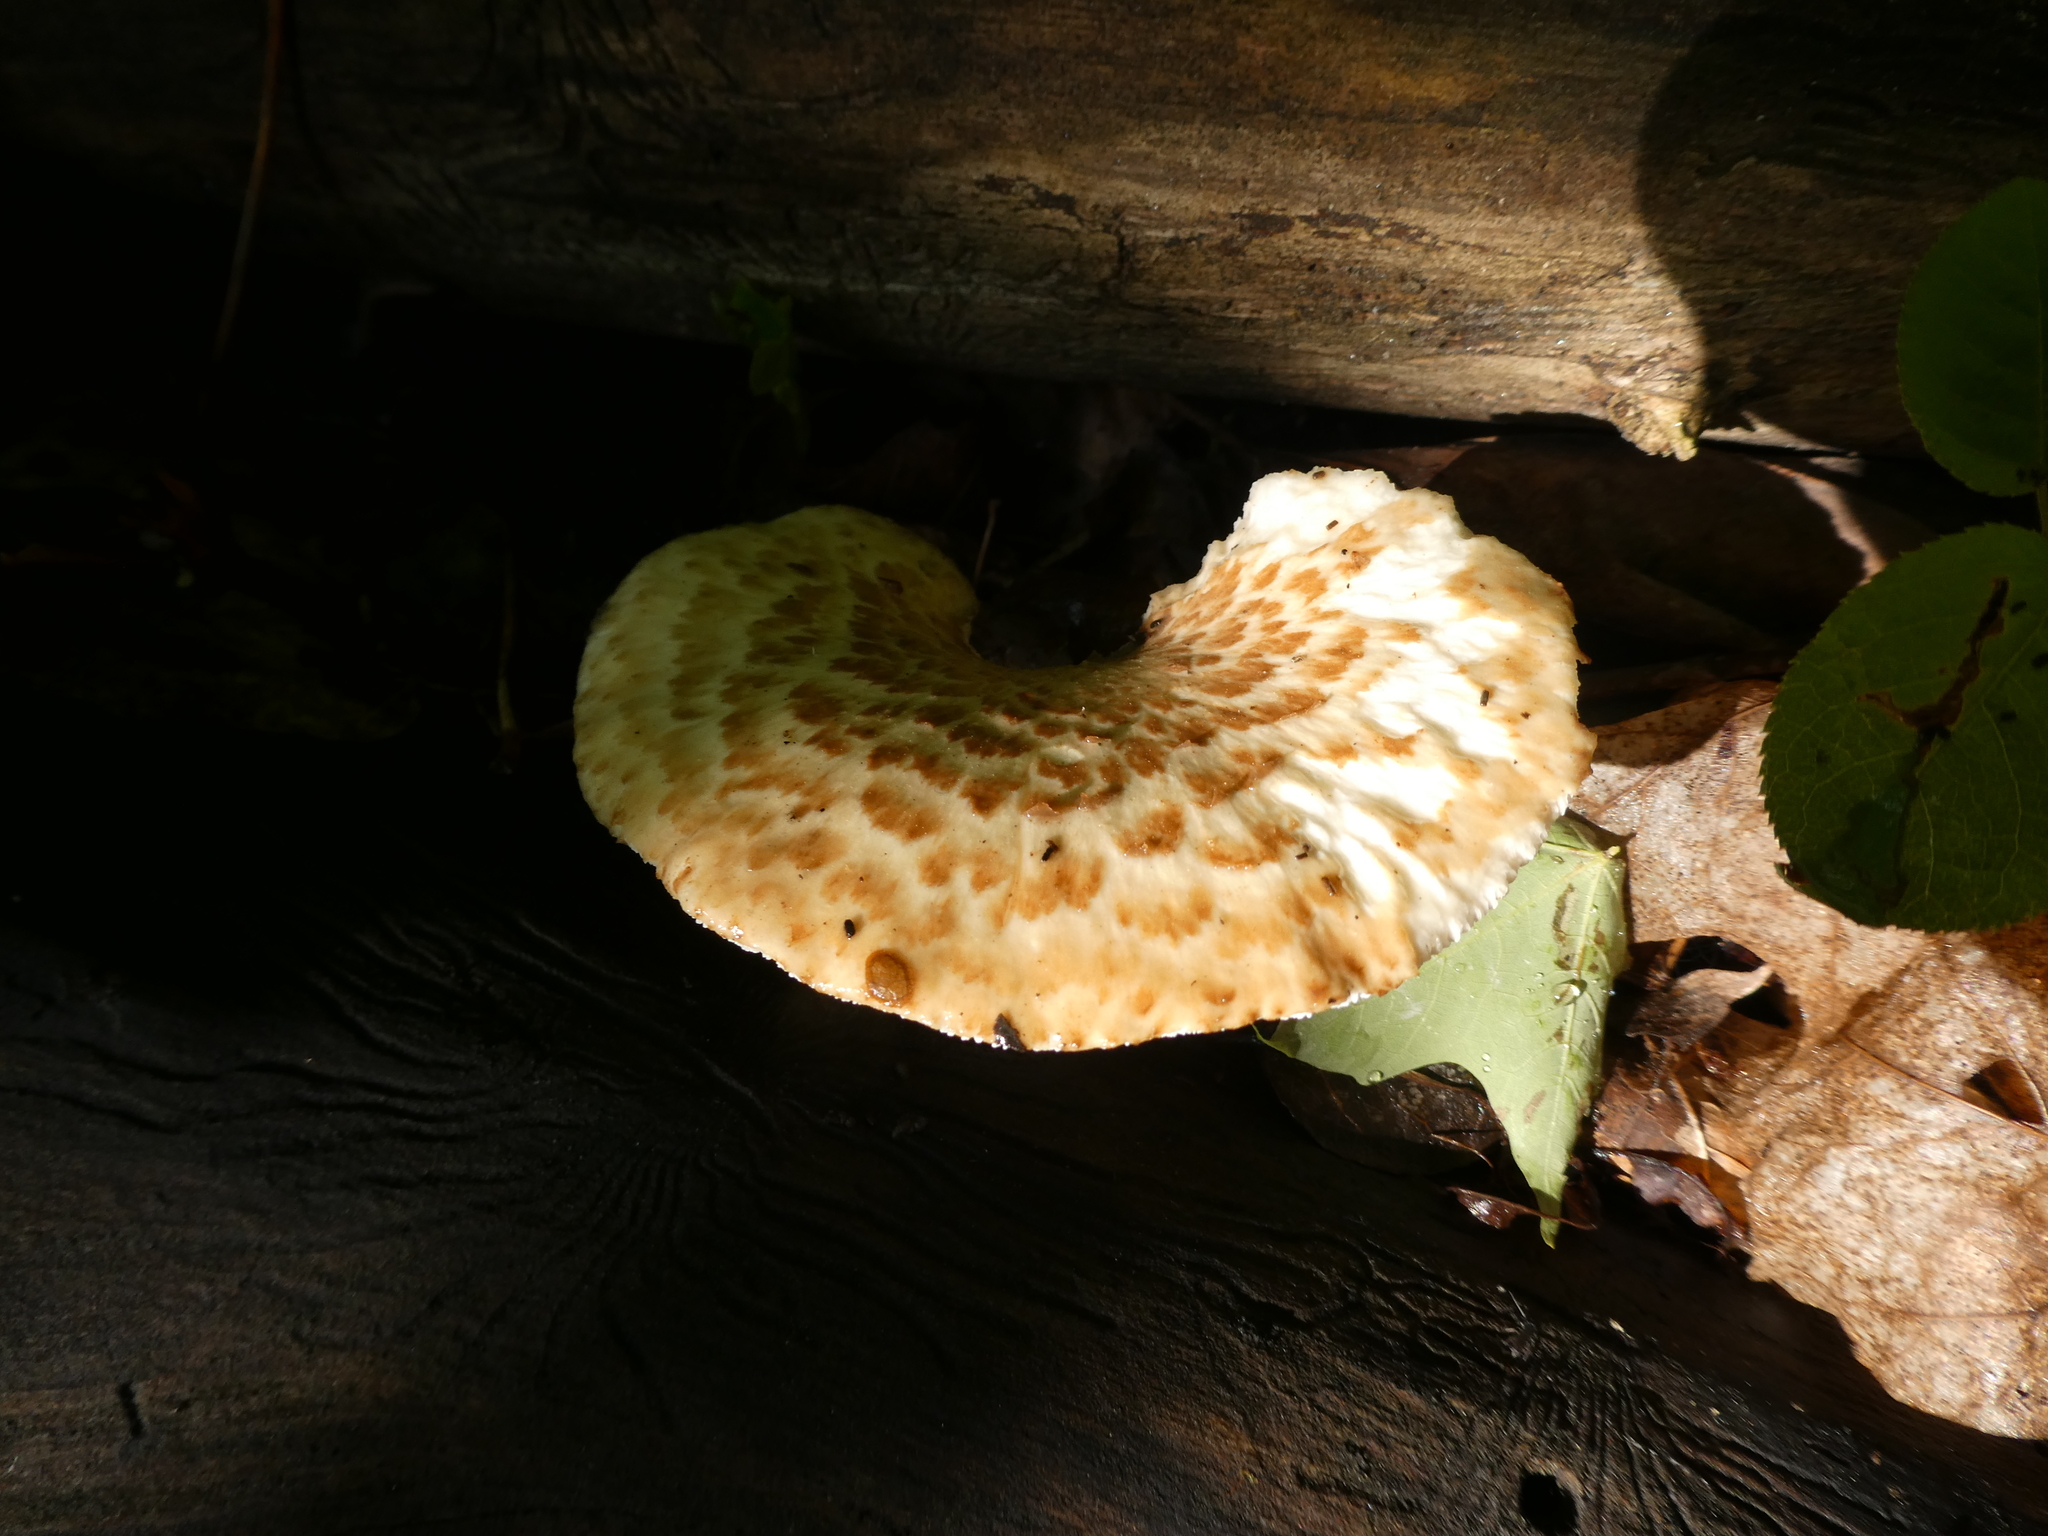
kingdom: Fungi
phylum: Basidiomycota
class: Agaricomycetes
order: Polyporales
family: Polyporaceae
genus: Cerioporus
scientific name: Cerioporus squamosus
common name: Dryad's saddle
